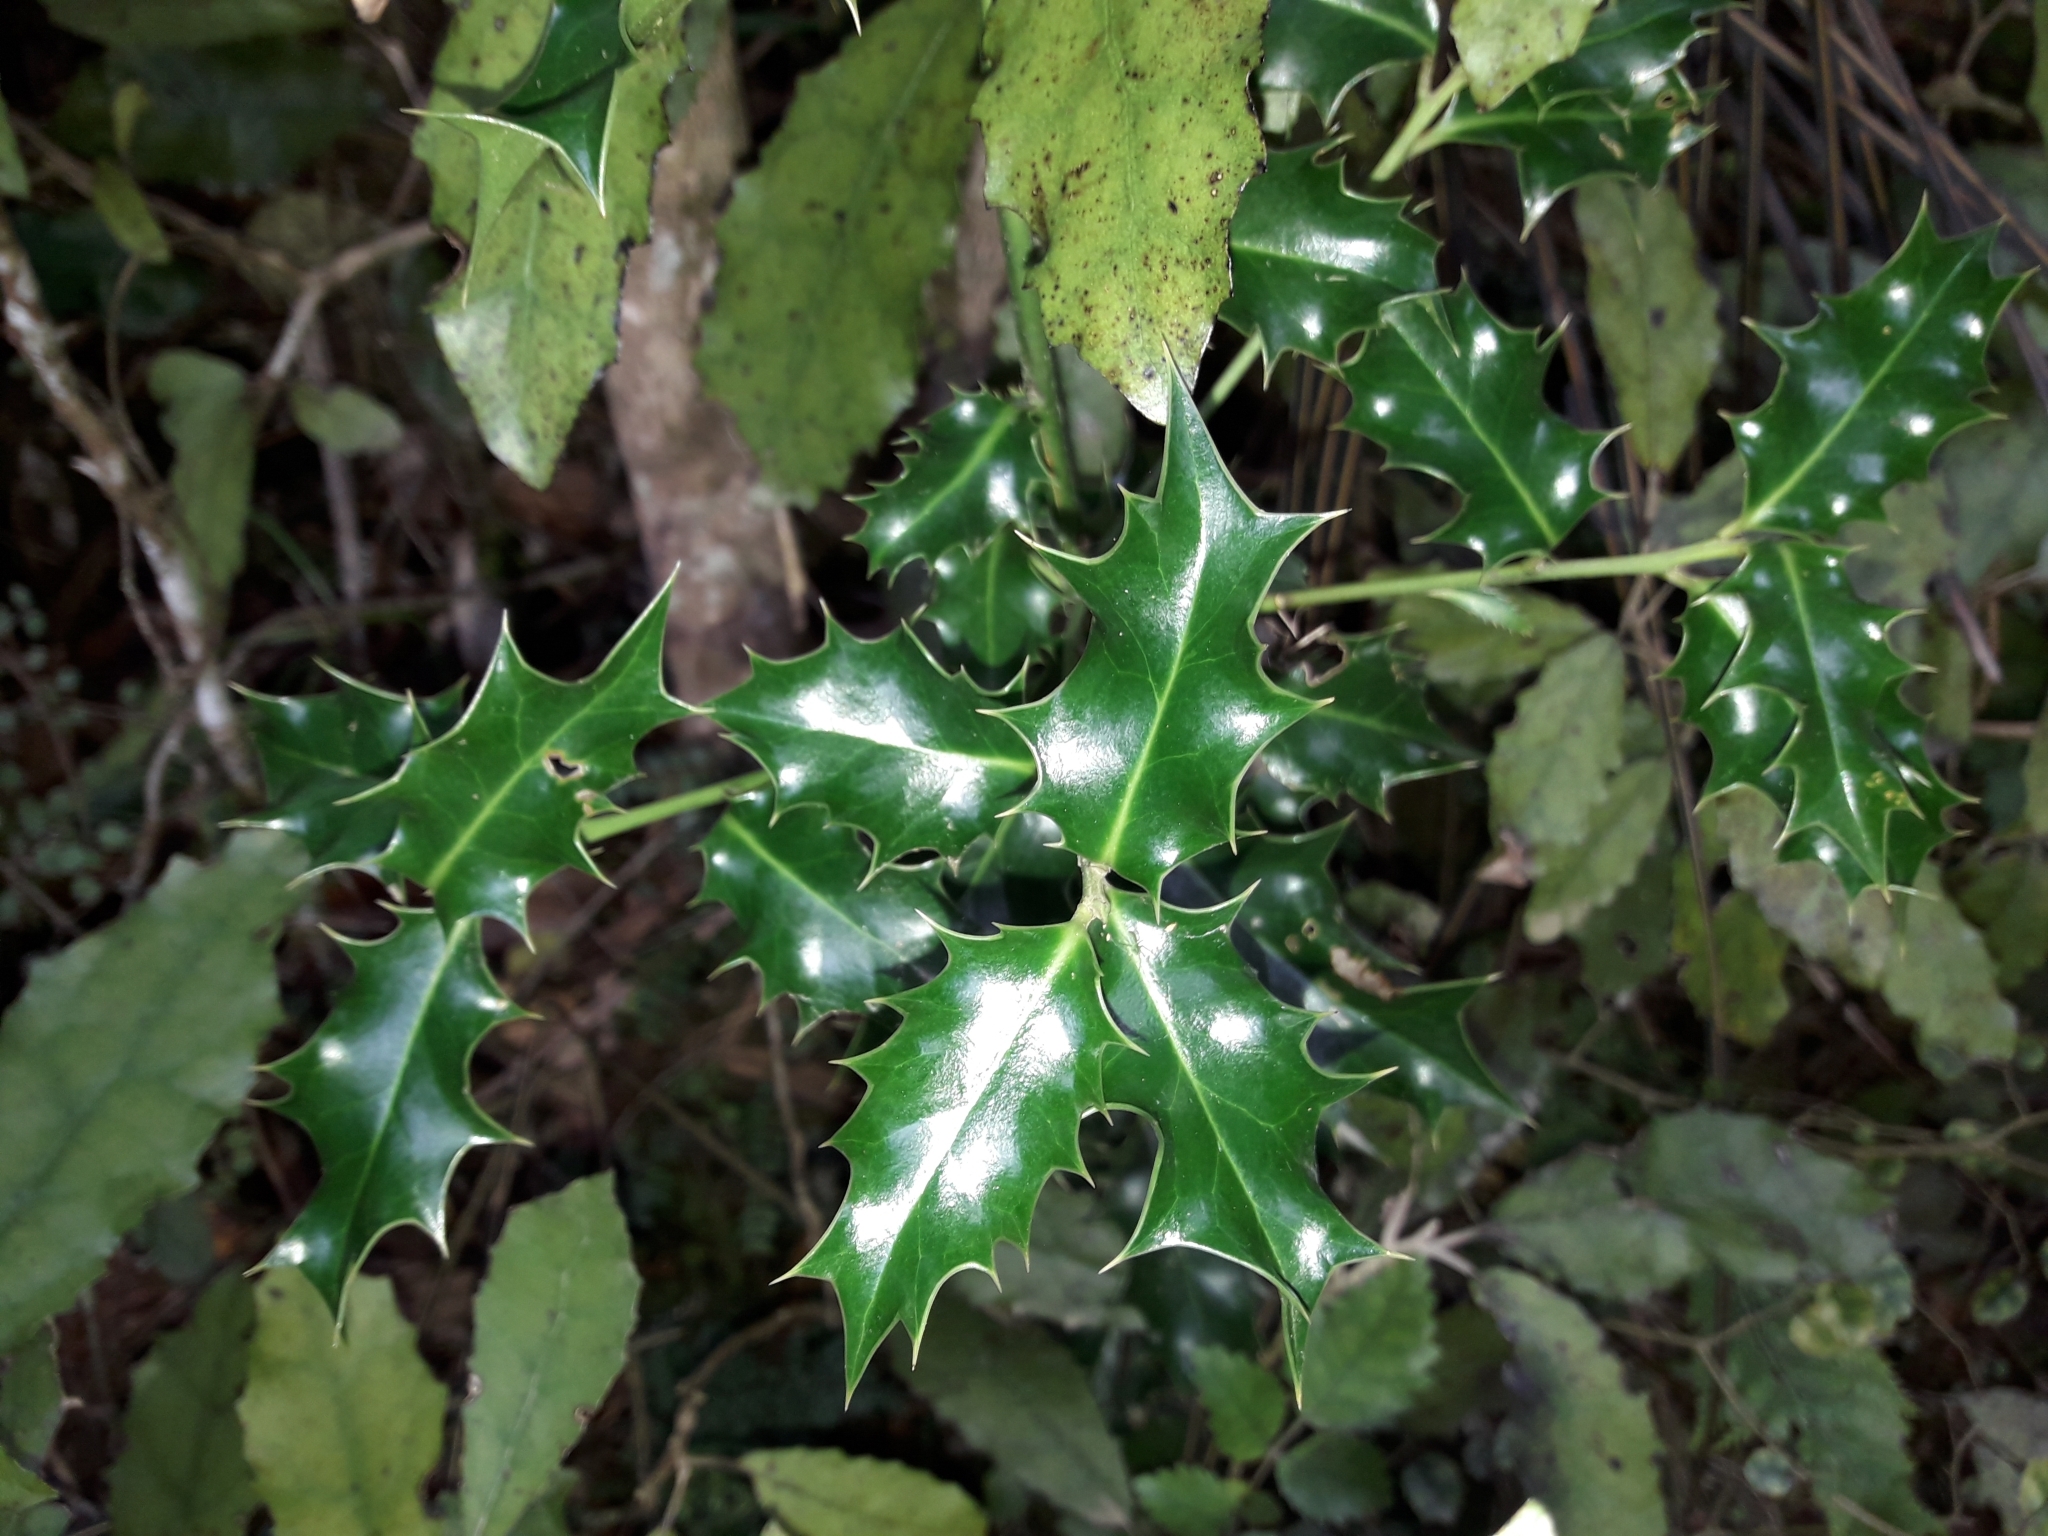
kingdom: Plantae
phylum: Tracheophyta
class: Magnoliopsida
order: Aquifoliales
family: Aquifoliaceae
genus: Ilex
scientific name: Ilex aquifolium
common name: English holly
